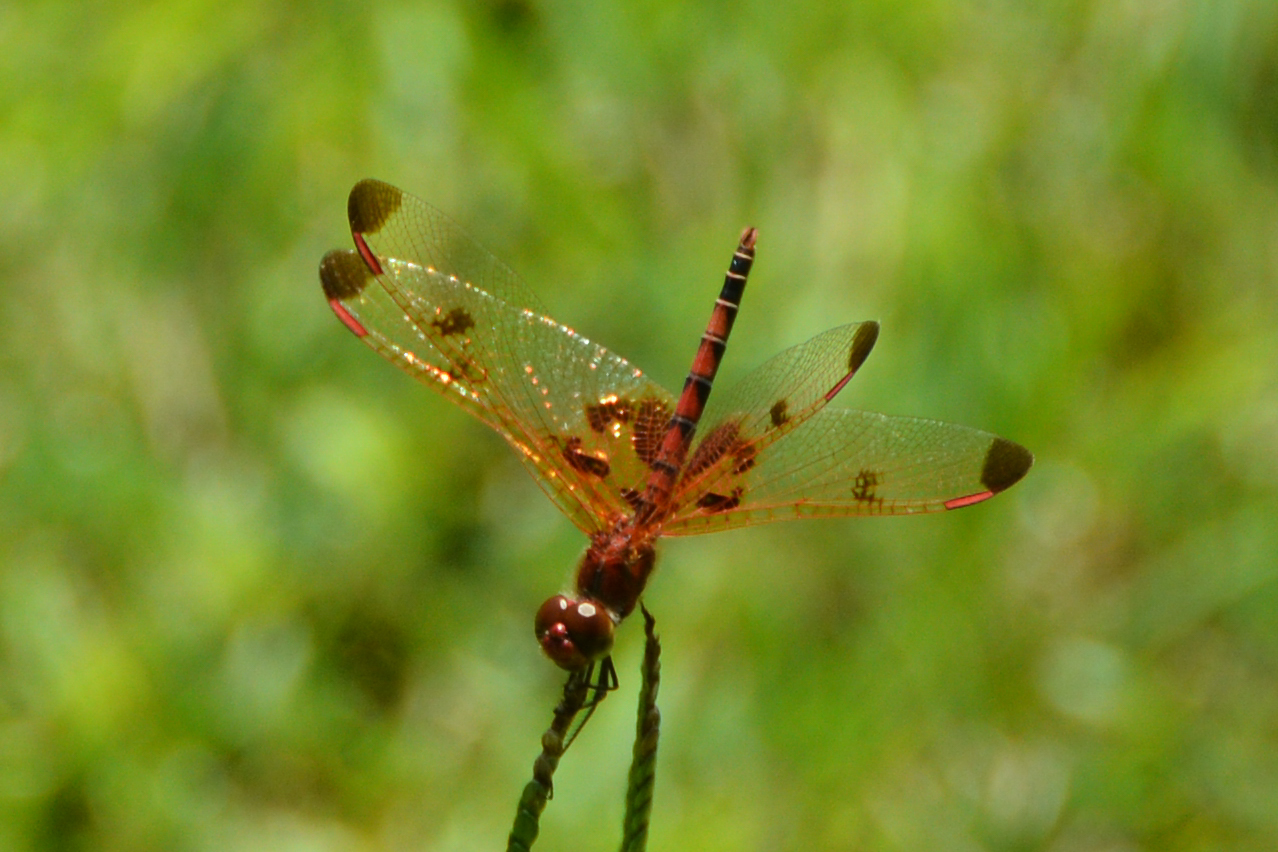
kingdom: Animalia
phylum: Arthropoda
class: Insecta
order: Odonata
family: Libellulidae
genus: Celithemis
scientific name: Celithemis elisa
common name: Calico pennant
